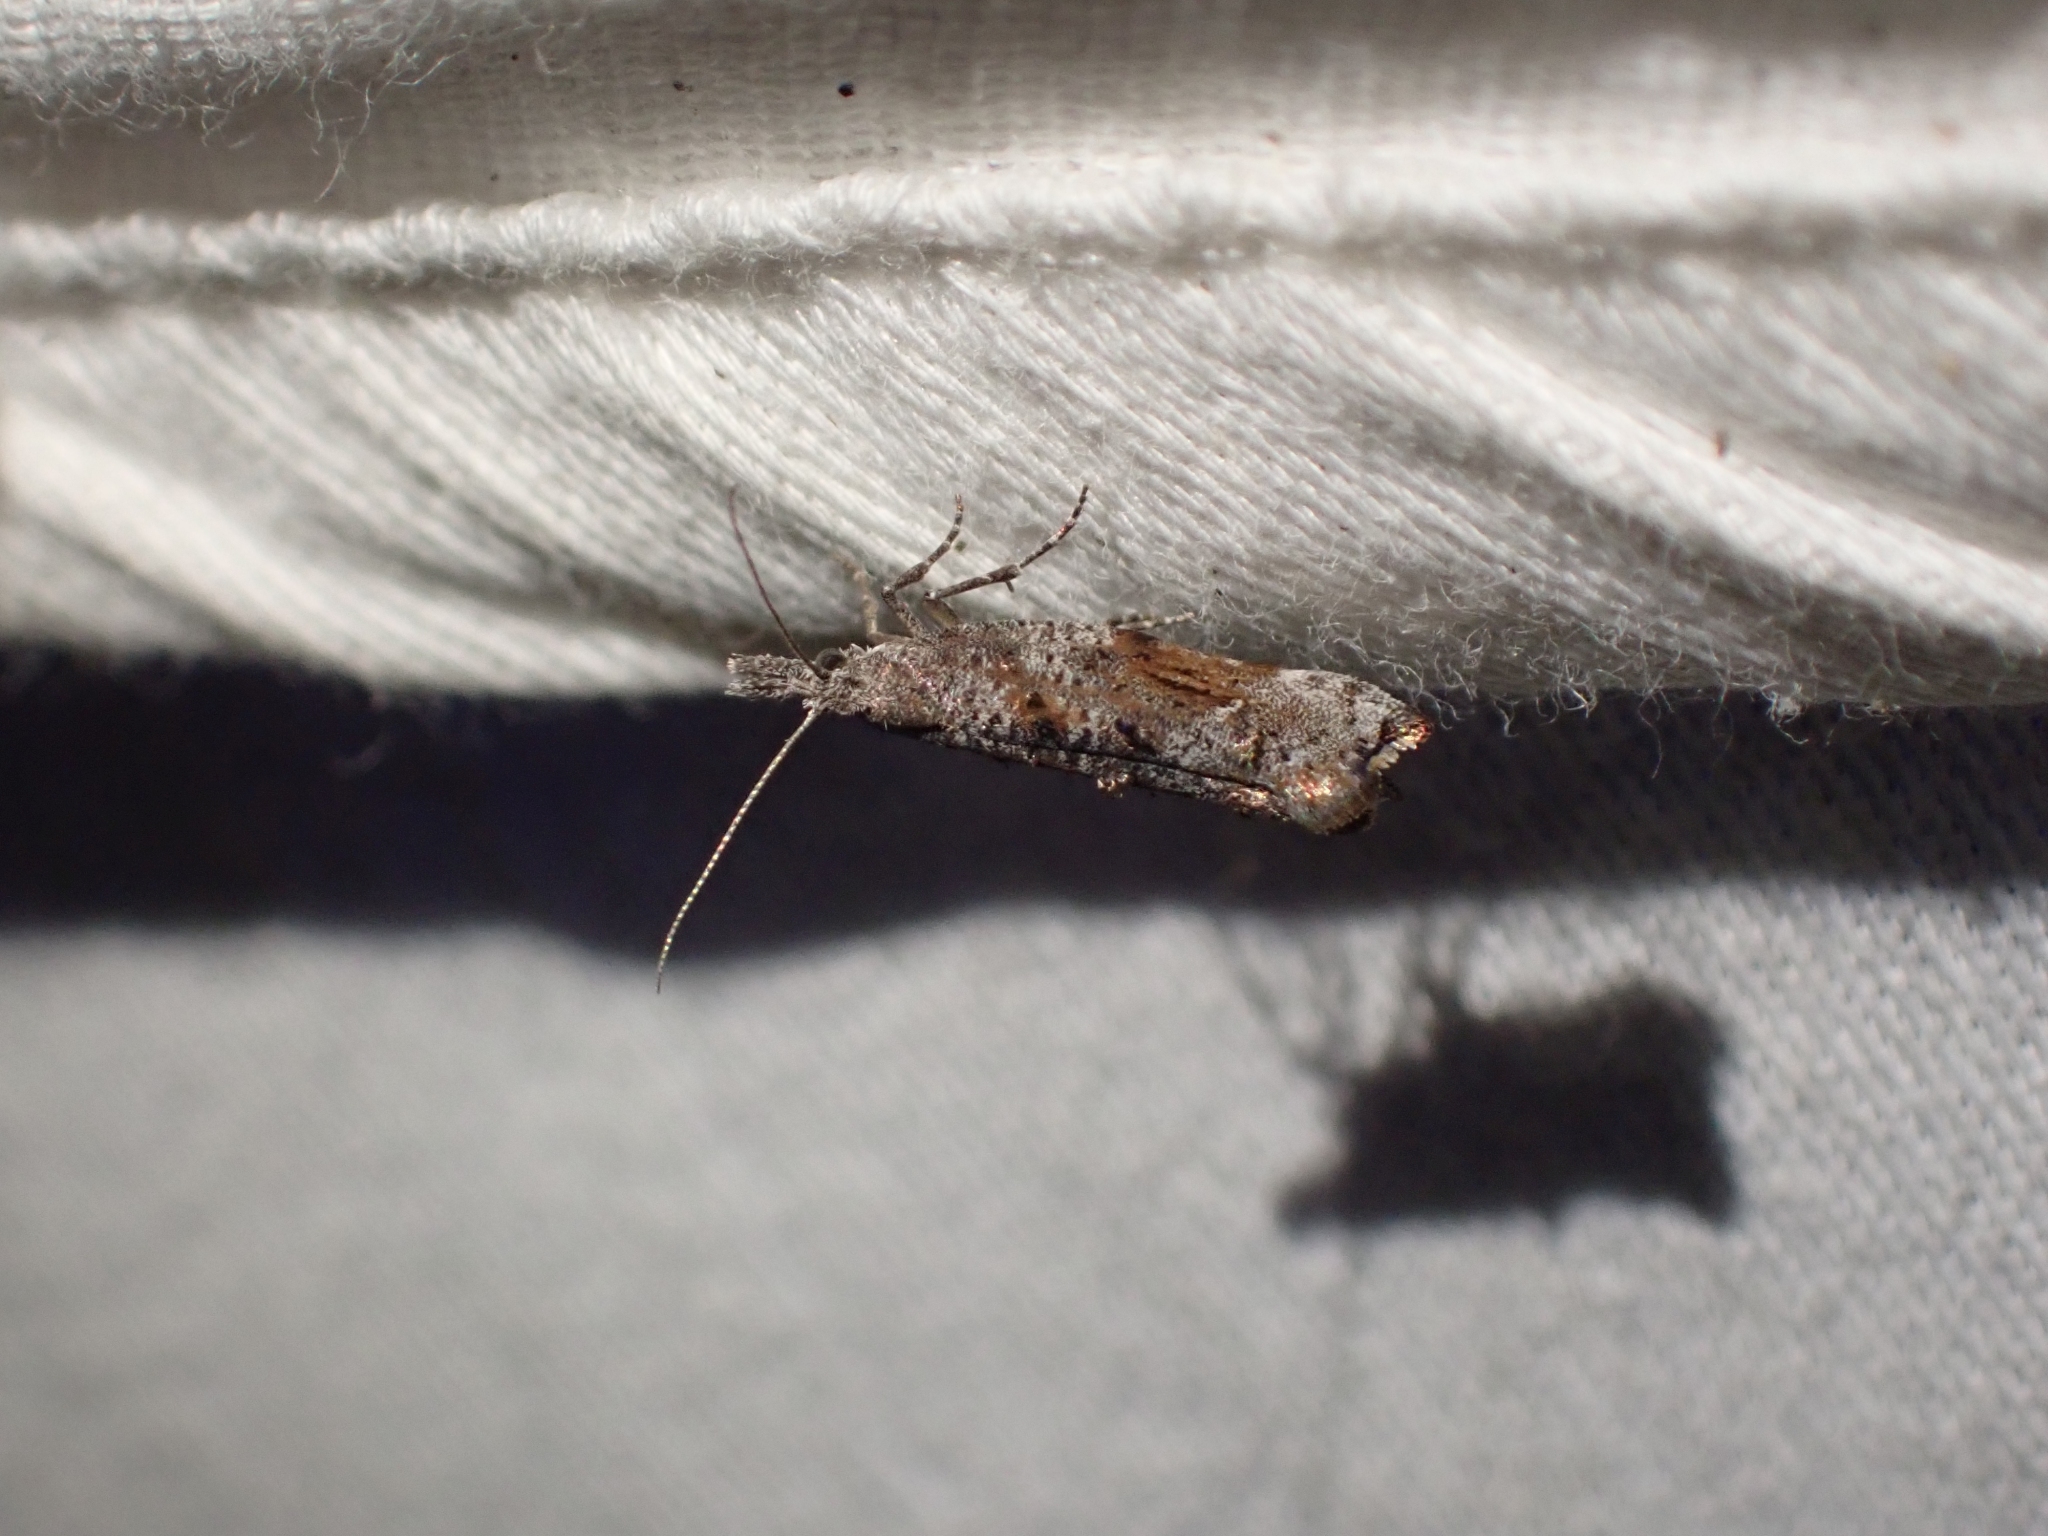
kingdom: Animalia
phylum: Arthropoda
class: Insecta
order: Lepidoptera
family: Ypsolophidae
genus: Ypsolopha
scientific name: Ypsolopha senex
